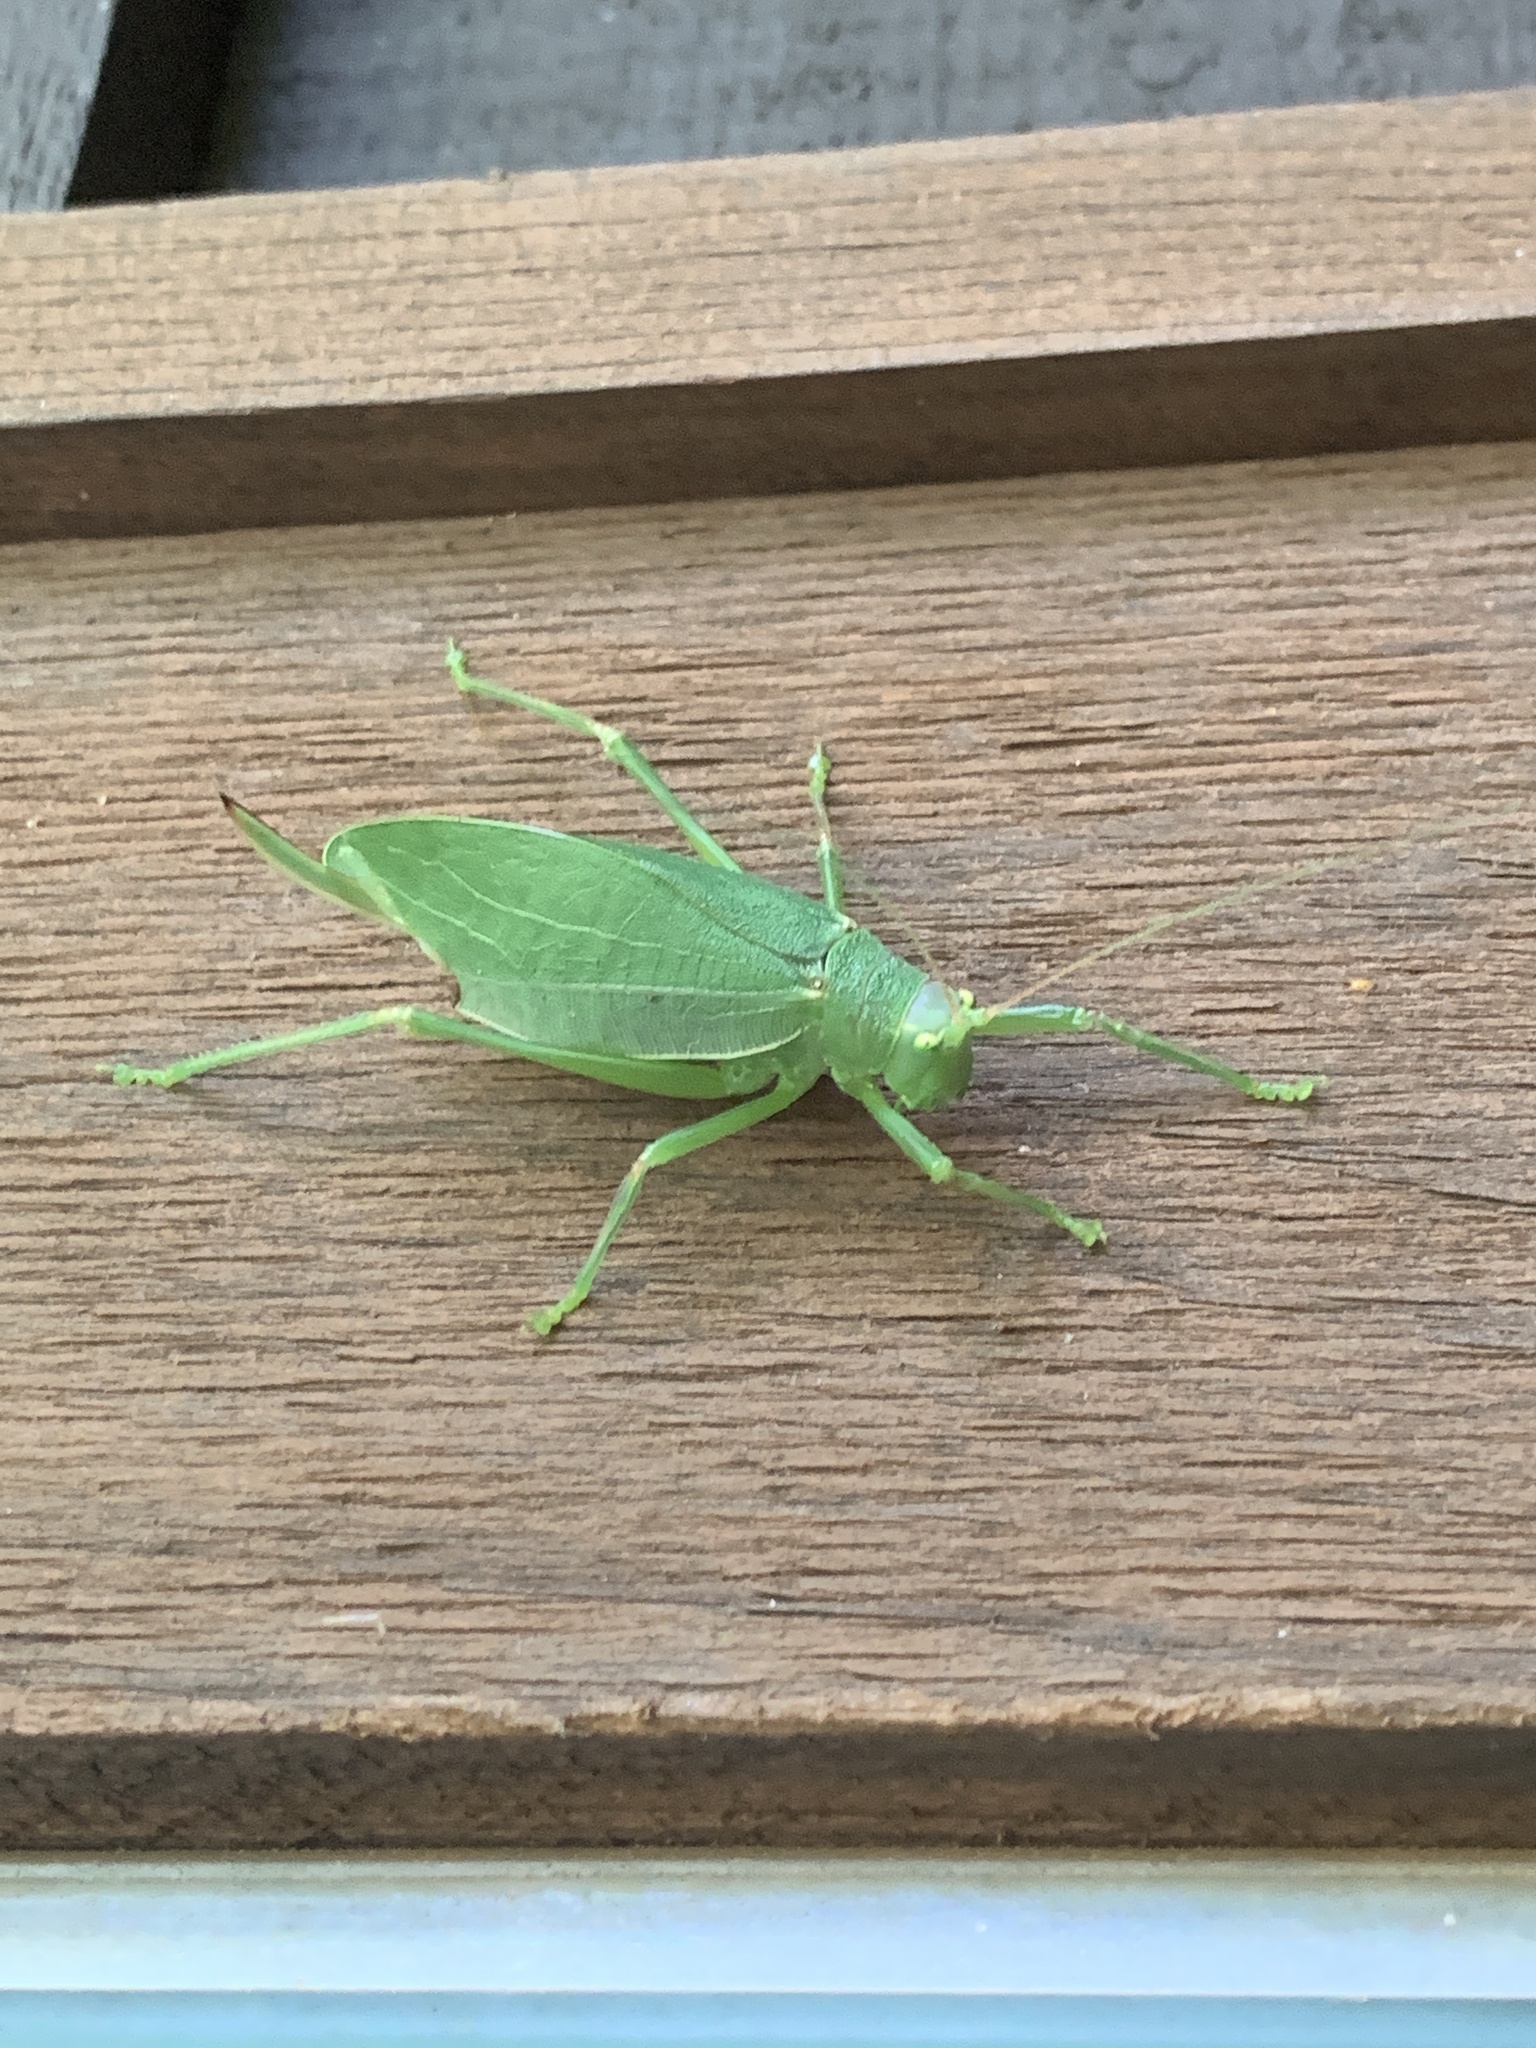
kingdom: Animalia
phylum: Arthropoda
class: Insecta
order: Orthoptera
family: Tettigoniidae
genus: Pterophylla
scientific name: Pterophylla camellifolia
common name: Common true katydid
